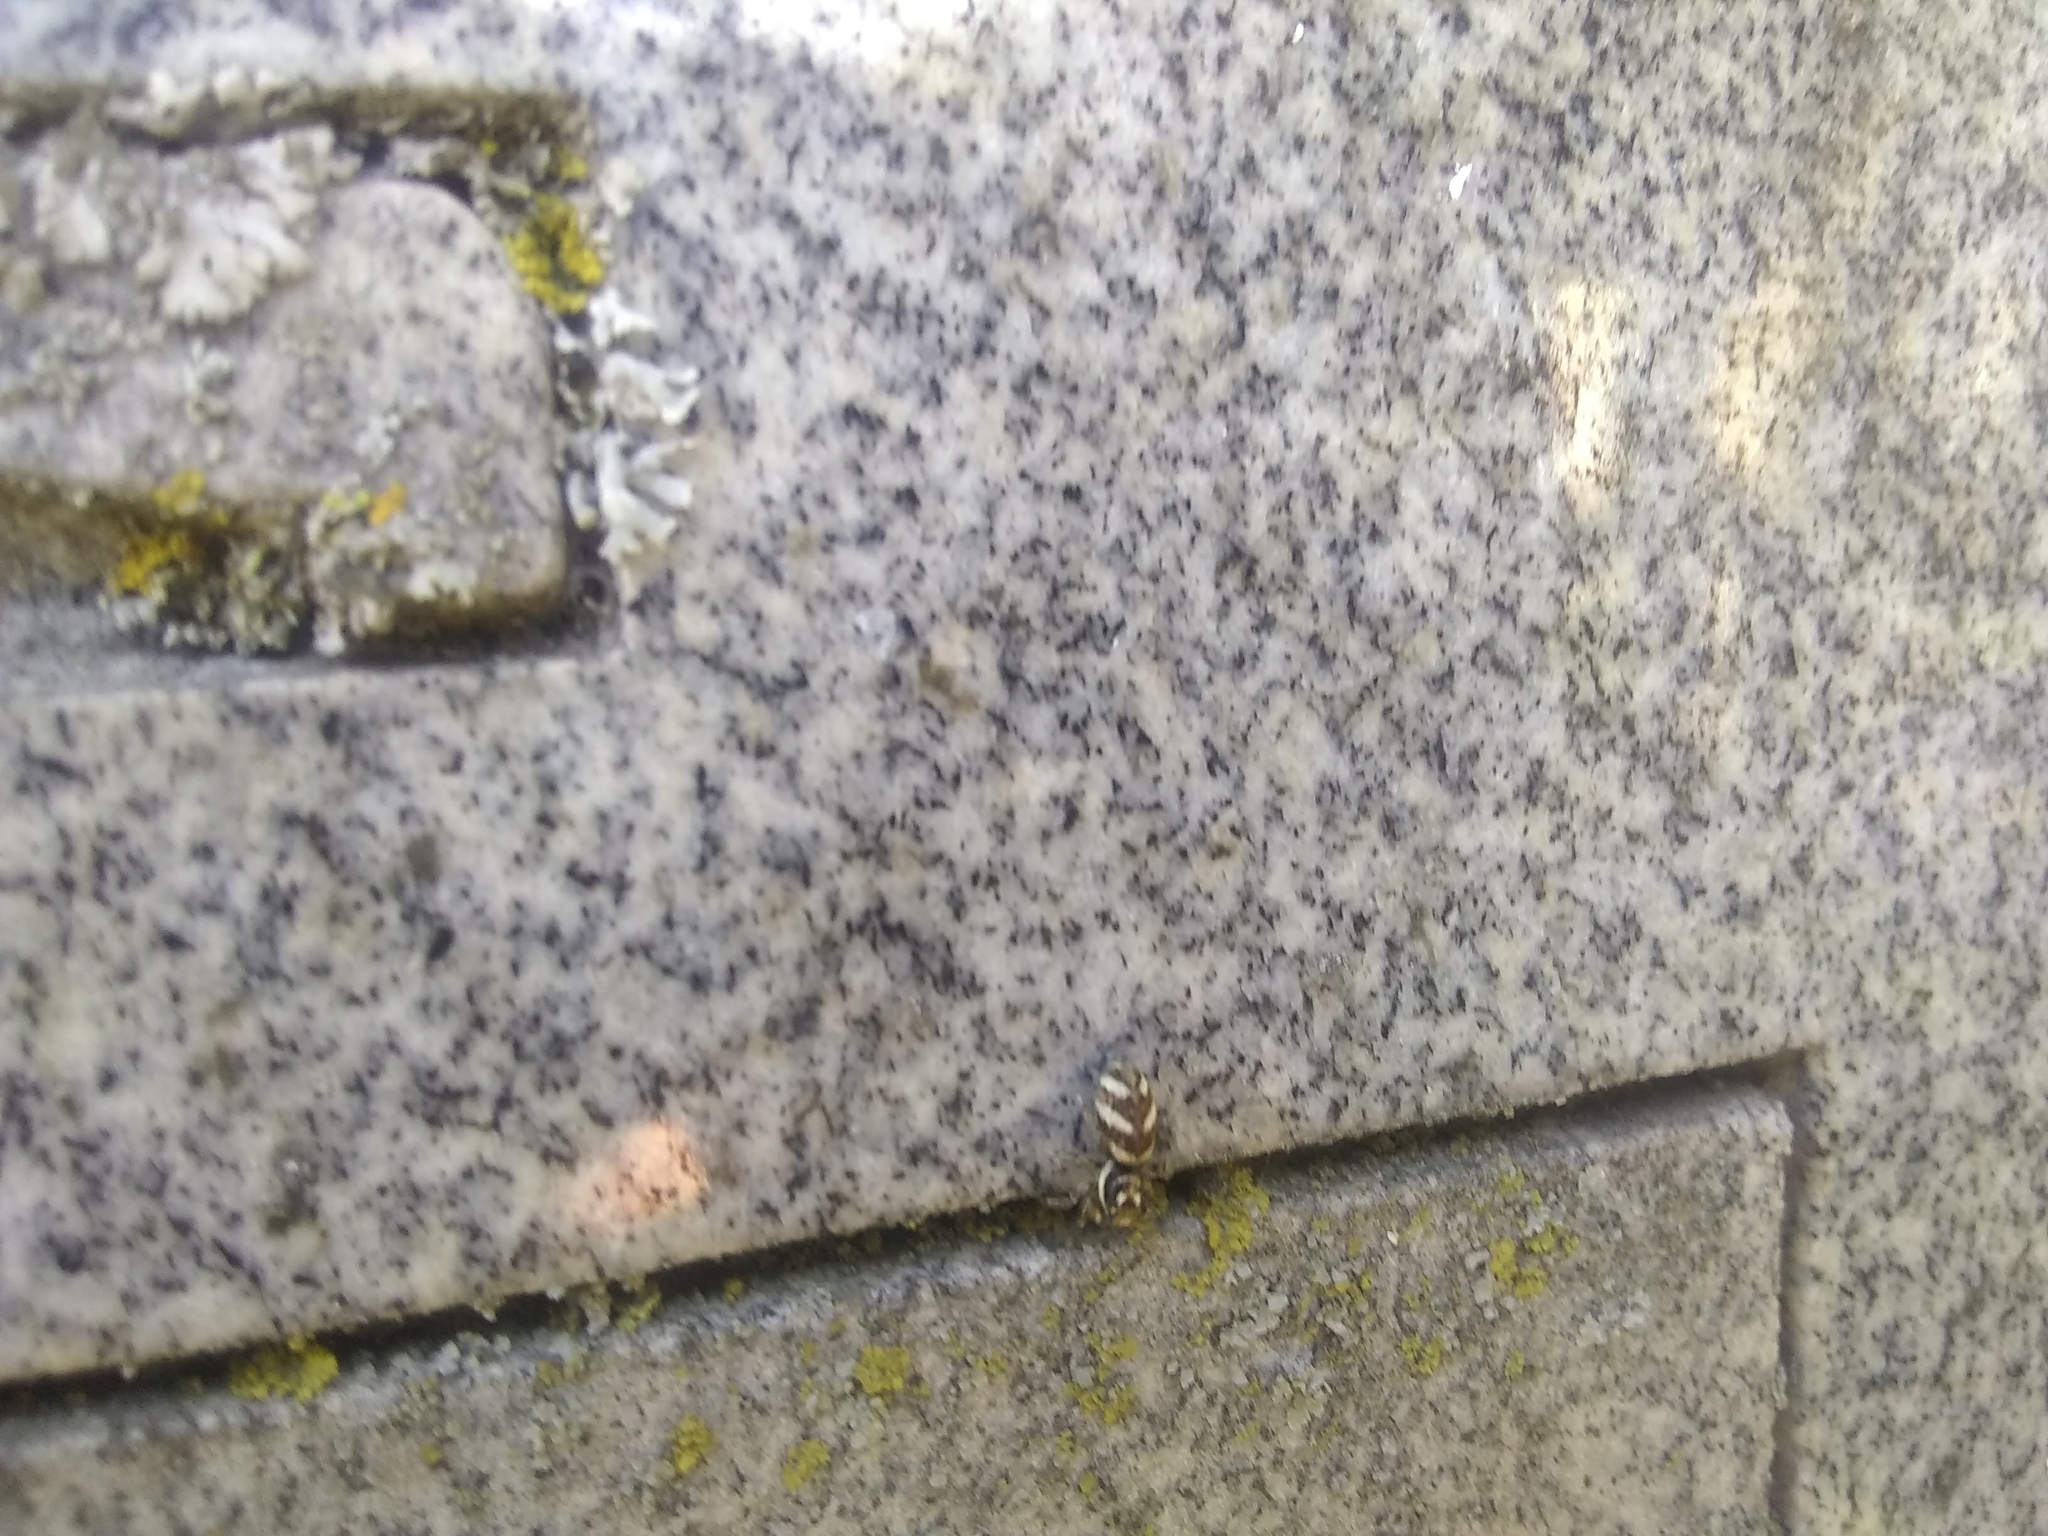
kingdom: Animalia
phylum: Arthropoda
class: Arachnida
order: Araneae
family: Salticidae
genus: Salticus
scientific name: Salticus scenicus
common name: Zebra jumper
